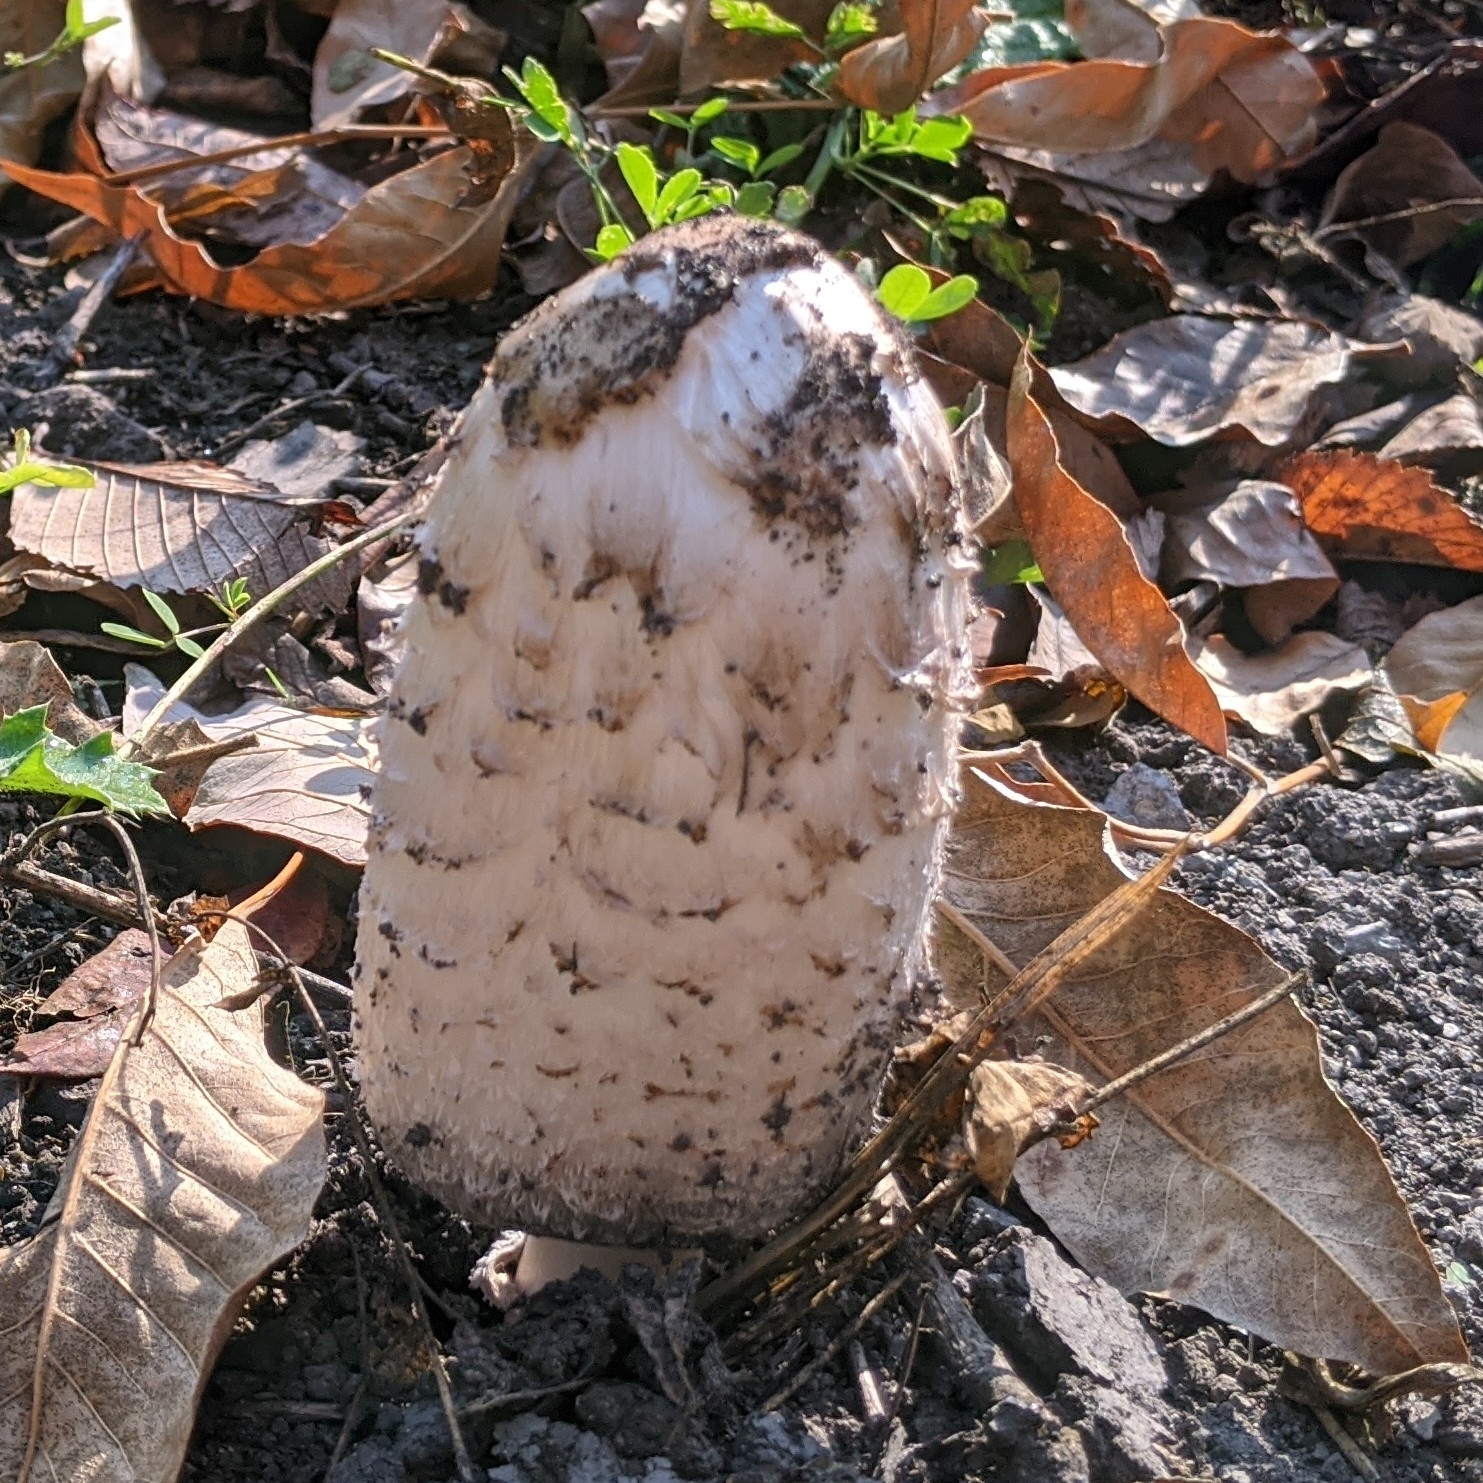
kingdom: Fungi
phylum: Basidiomycota
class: Agaricomycetes
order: Agaricales
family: Agaricaceae
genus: Coprinus
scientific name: Coprinus comatus
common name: Lawyer's wig
